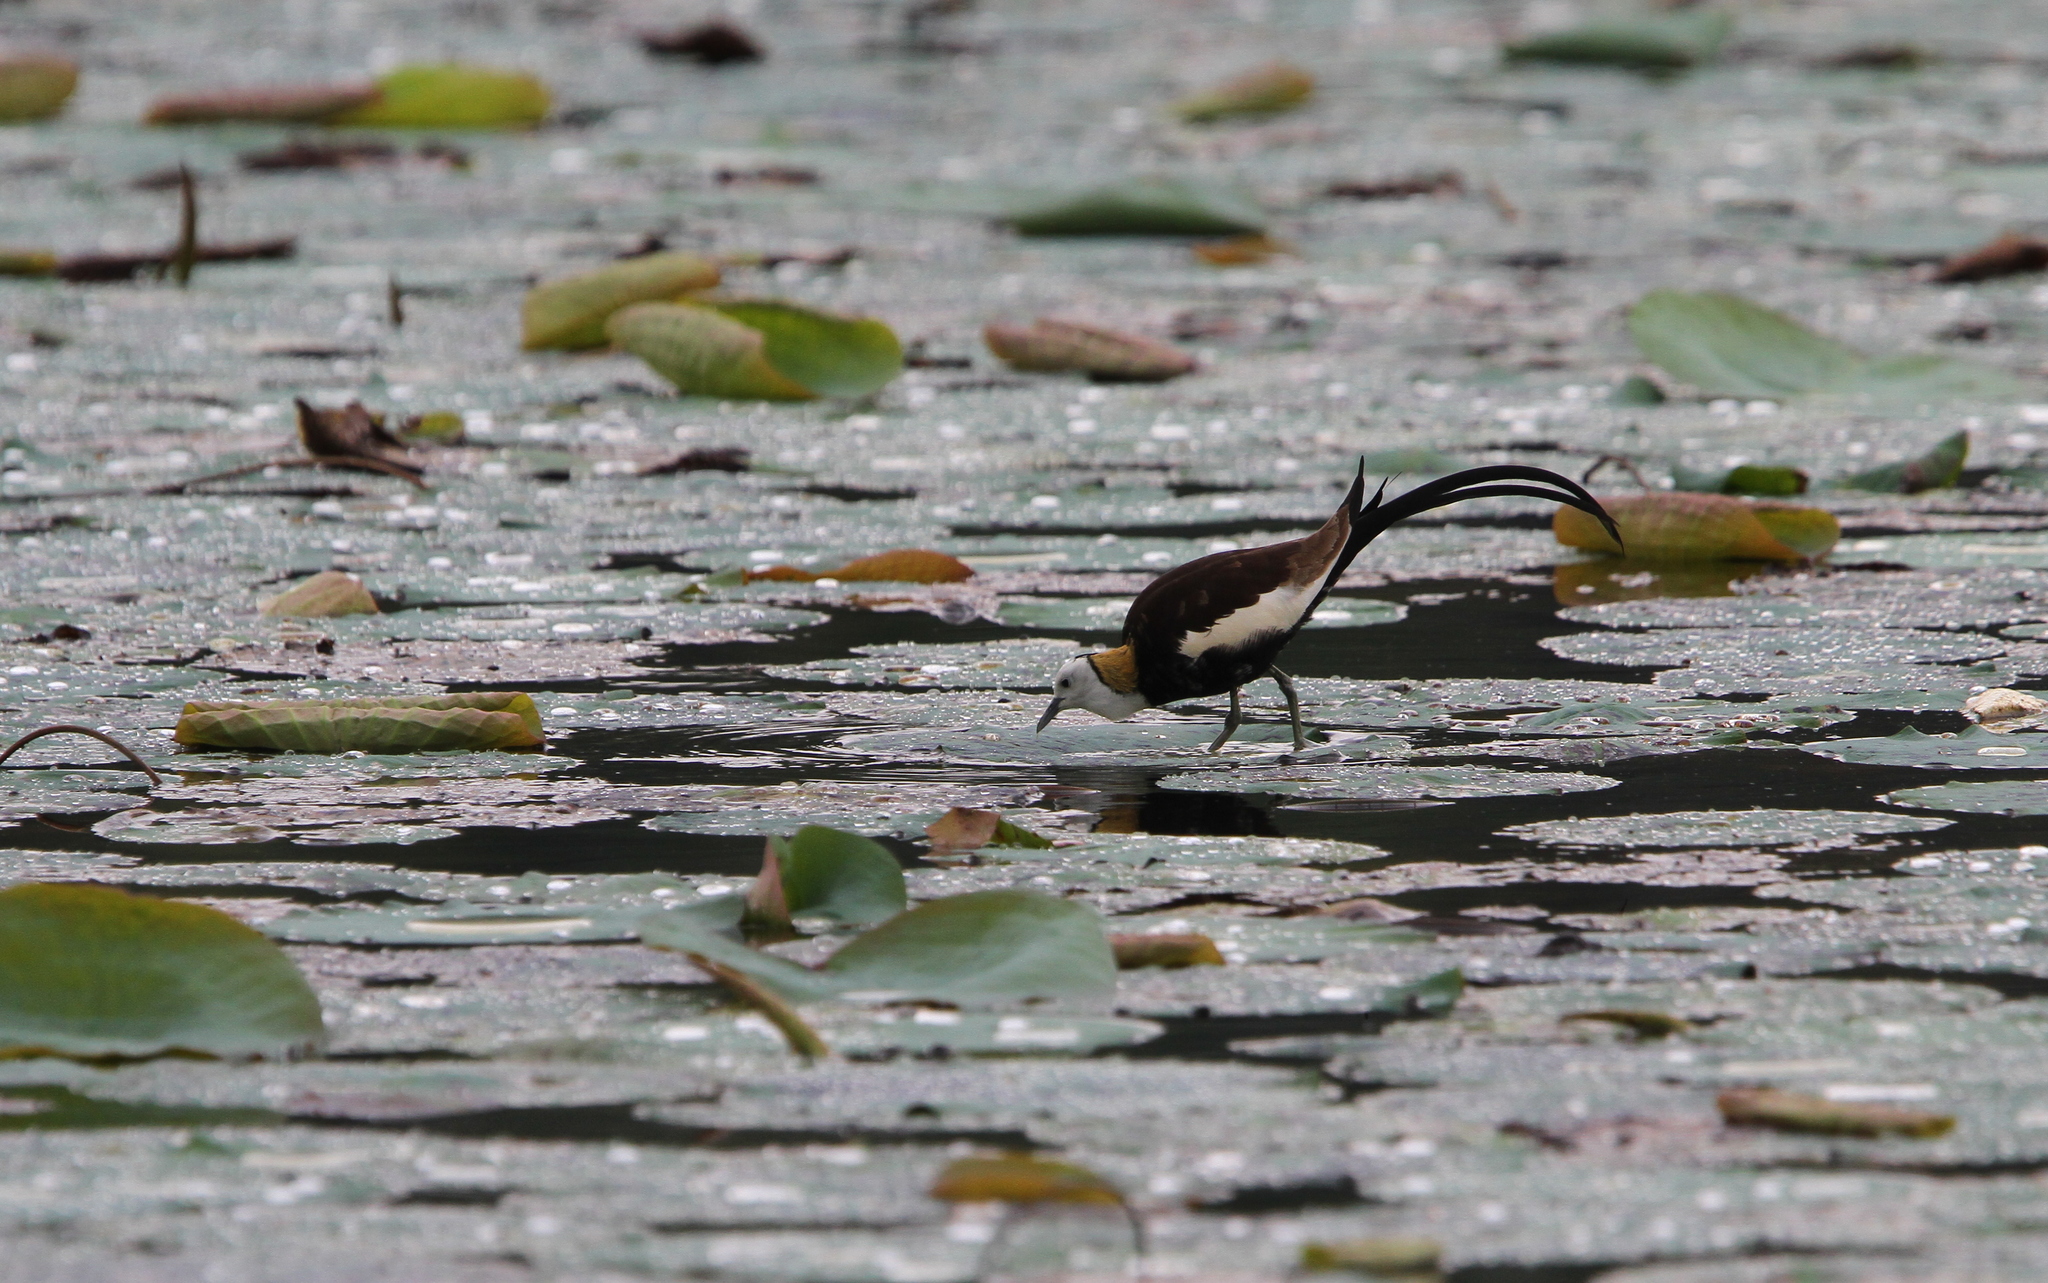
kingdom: Animalia
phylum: Chordata
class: Aves
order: Charadriiformes
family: Jacanidae
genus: Hydrophasianus
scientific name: Hydrophasianus chirurgus
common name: Pheasant-tailed jacana
